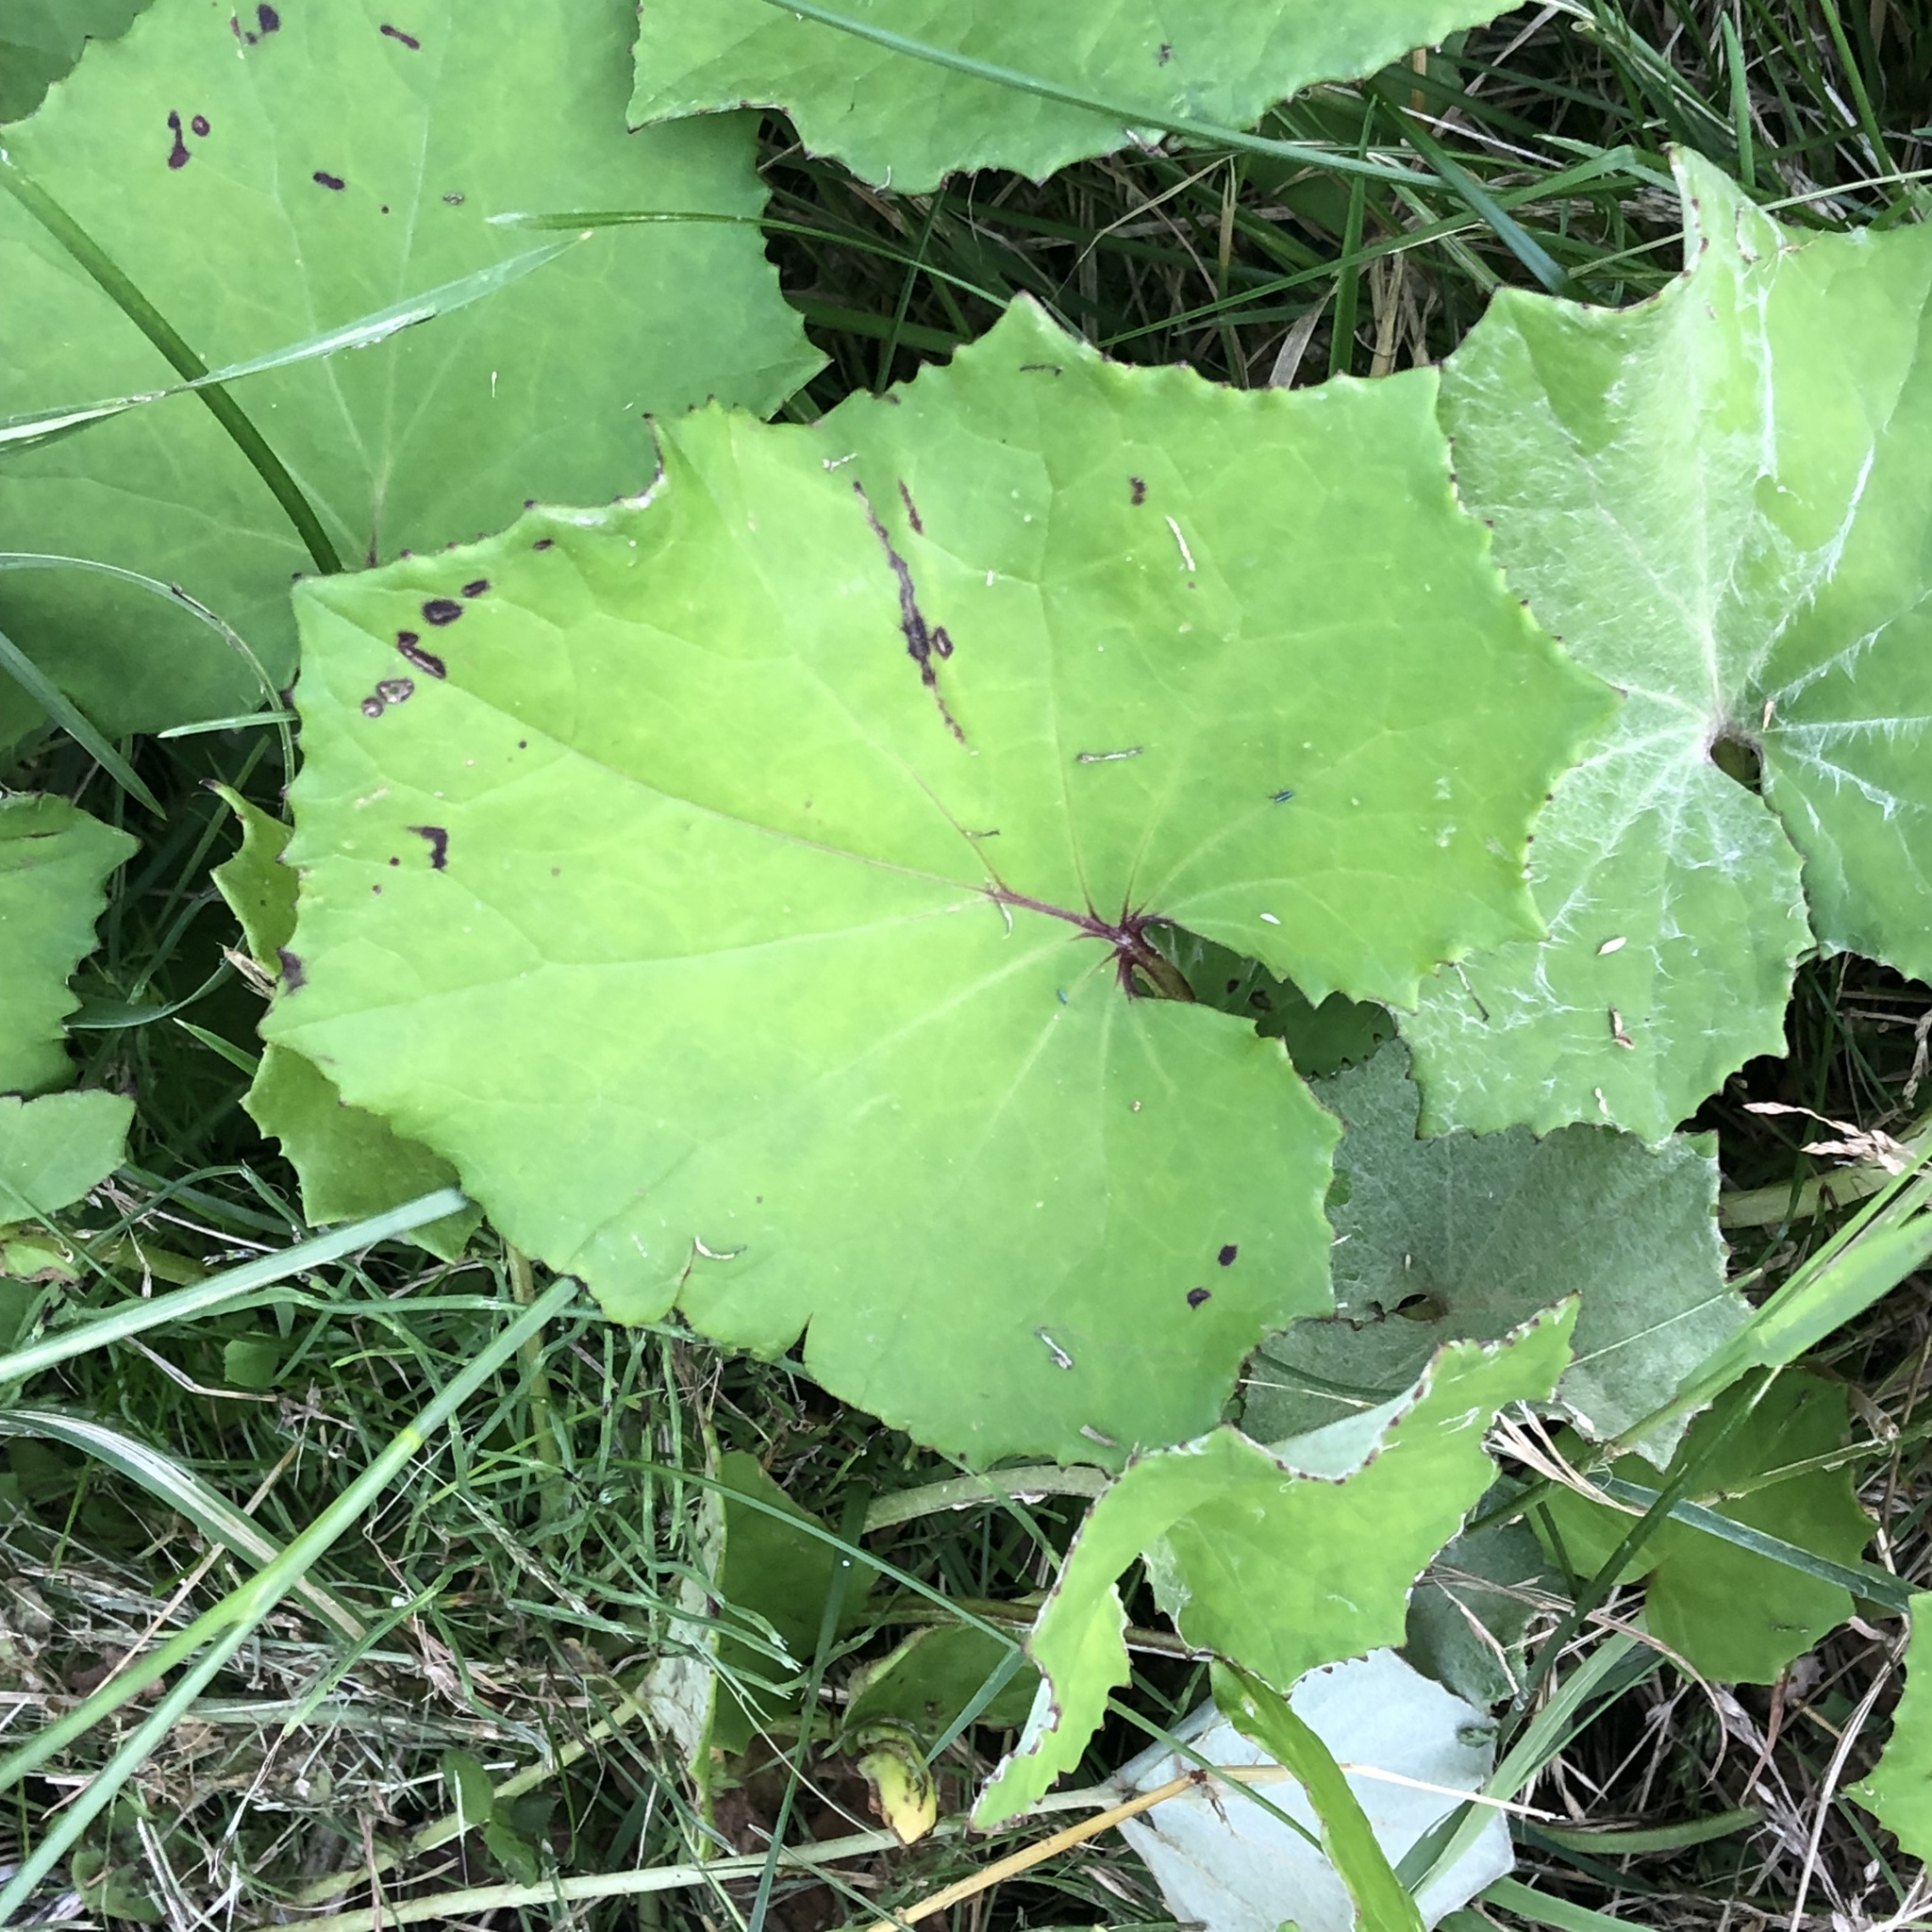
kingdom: Plantae
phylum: Tracheophyta
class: Magnoliopsida
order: Asterales
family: Asteraceae
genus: Tussilago
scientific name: Tussilago farfara
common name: Coltsfoot
